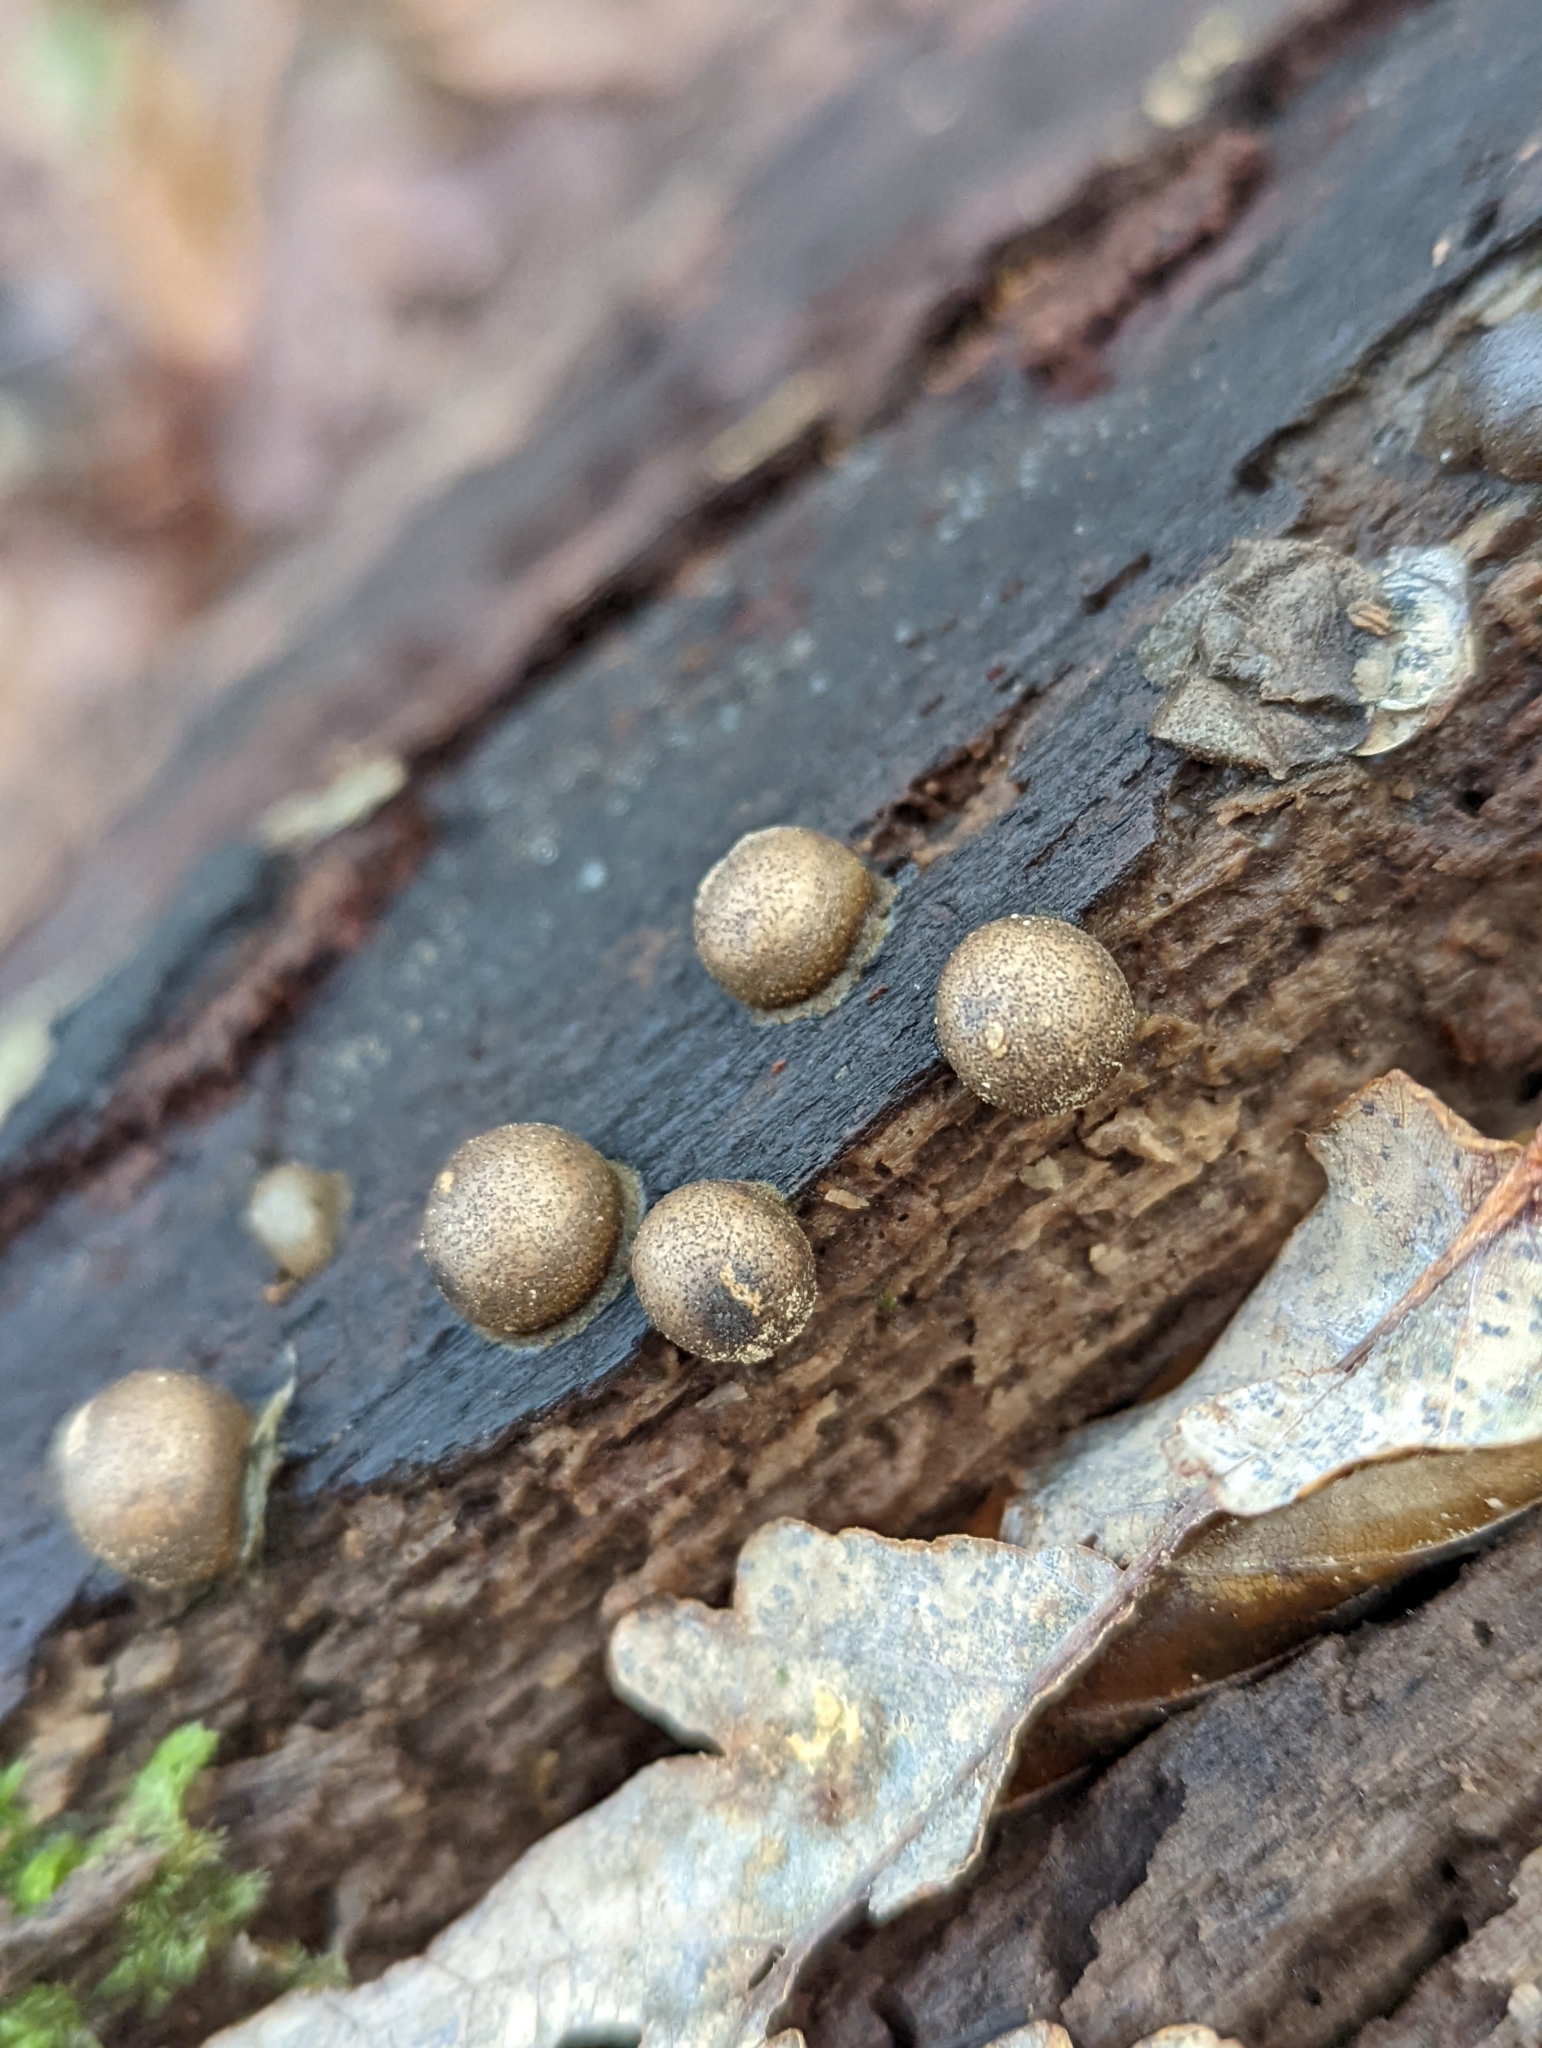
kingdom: Protozoa
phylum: Mycetozoa
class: Myxomycetes
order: Cribrariales
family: Tubiferaceae
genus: Lycogala
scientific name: Lycogala epidendrum
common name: Wolf's milk
